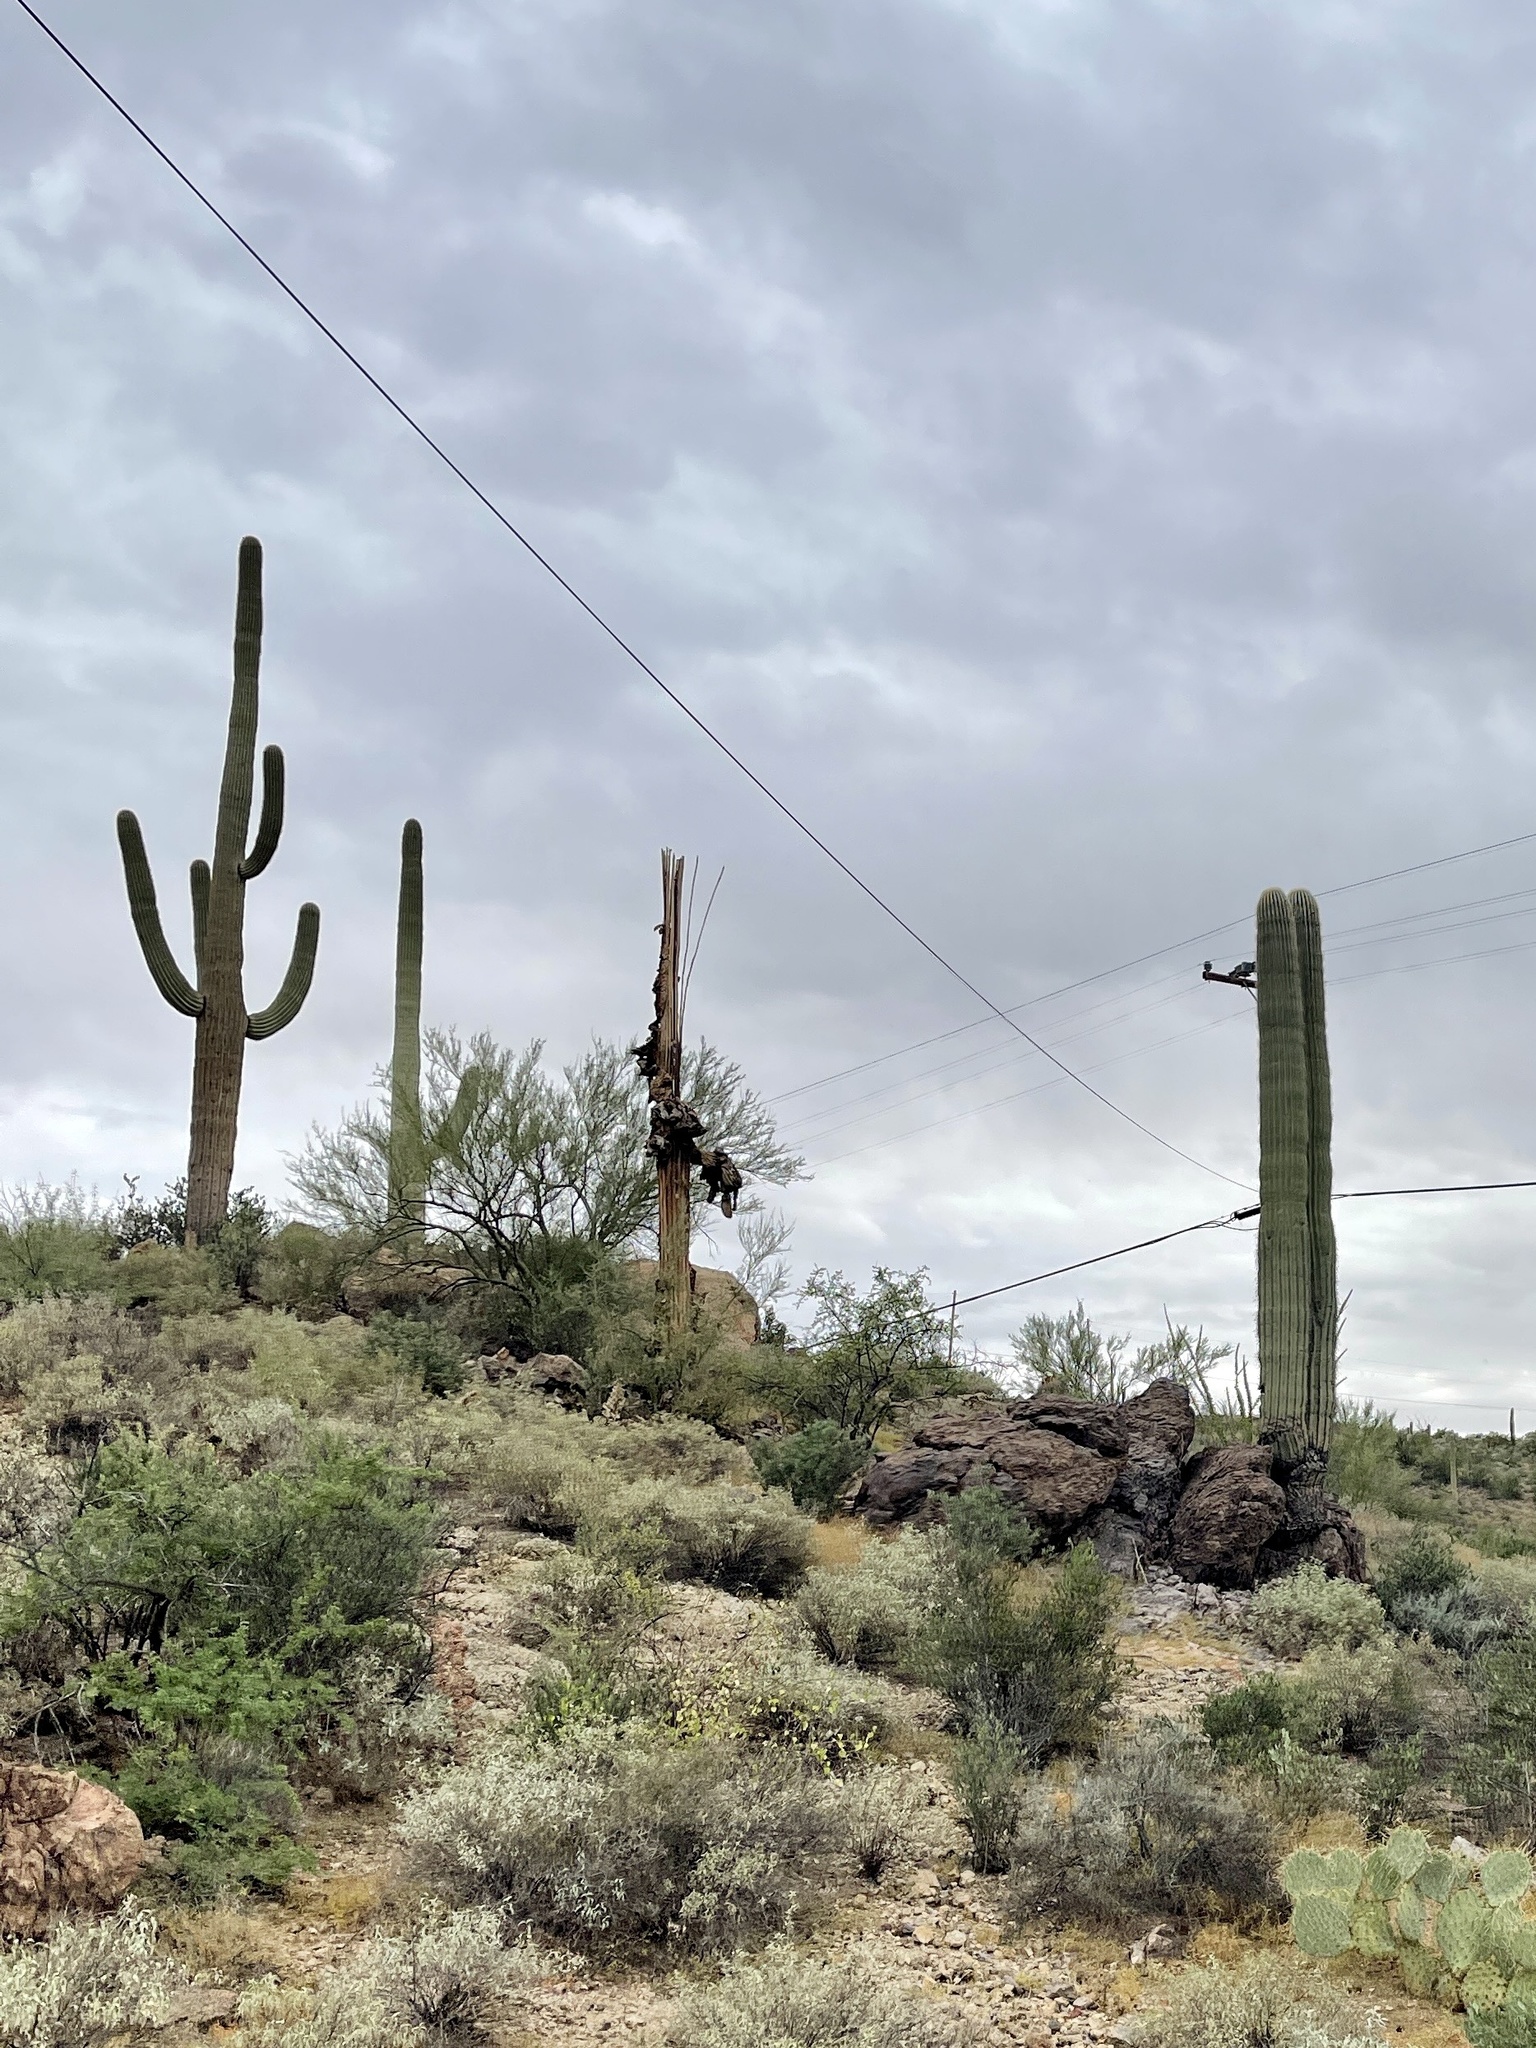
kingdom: Plantae
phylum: Tracheophyta
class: Magnoliopsida
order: Caryophyllales
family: Cactaceae
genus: Carnegiea
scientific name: Carnegiea gigantea
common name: Saguaro
